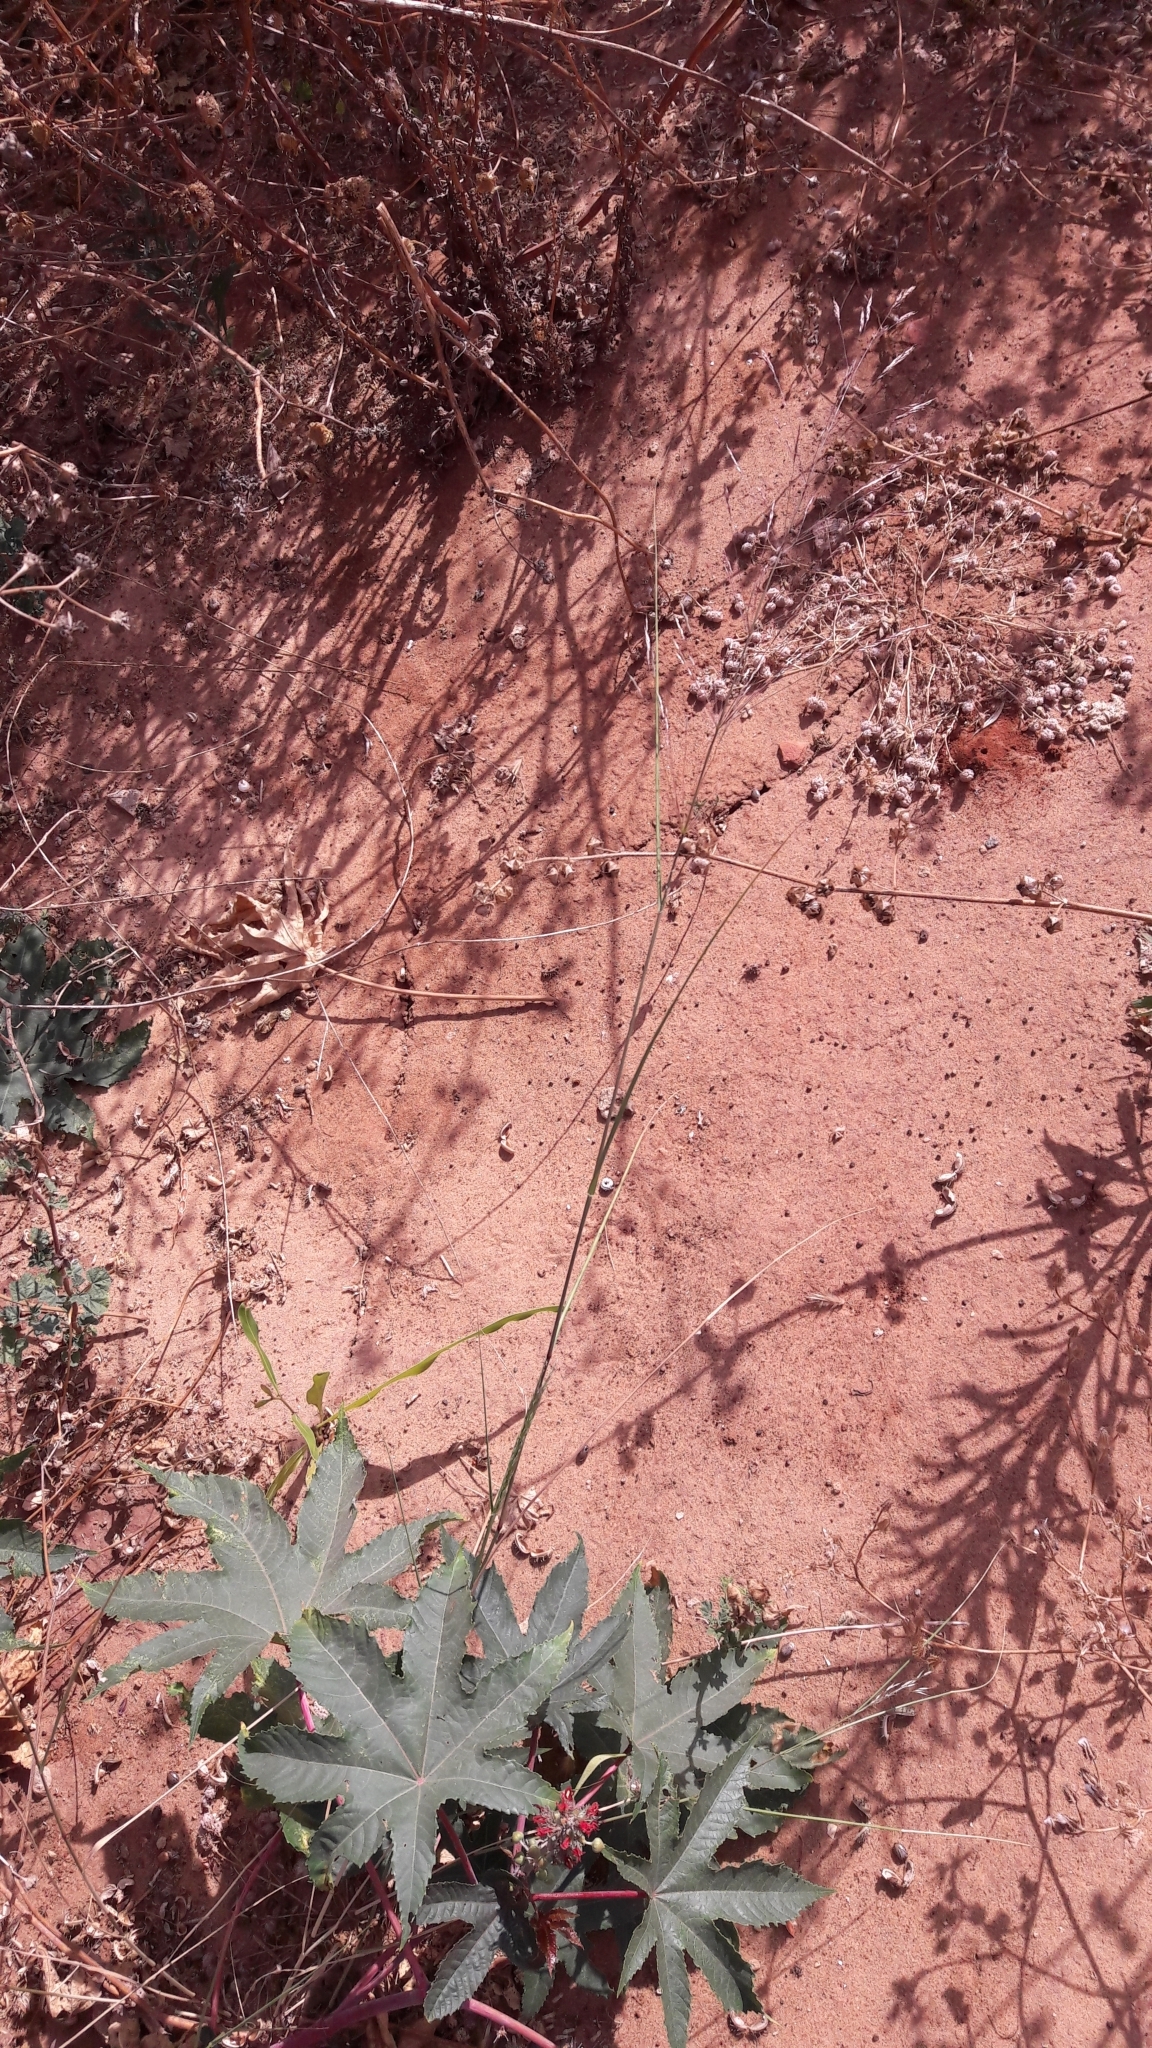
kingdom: Plantae
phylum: Tracheophyta
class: Magnoliopsida
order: Malpighiales
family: Euphorbiaceae
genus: Ricinus
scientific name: Ricinus communis
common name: Castor-oil-plant
